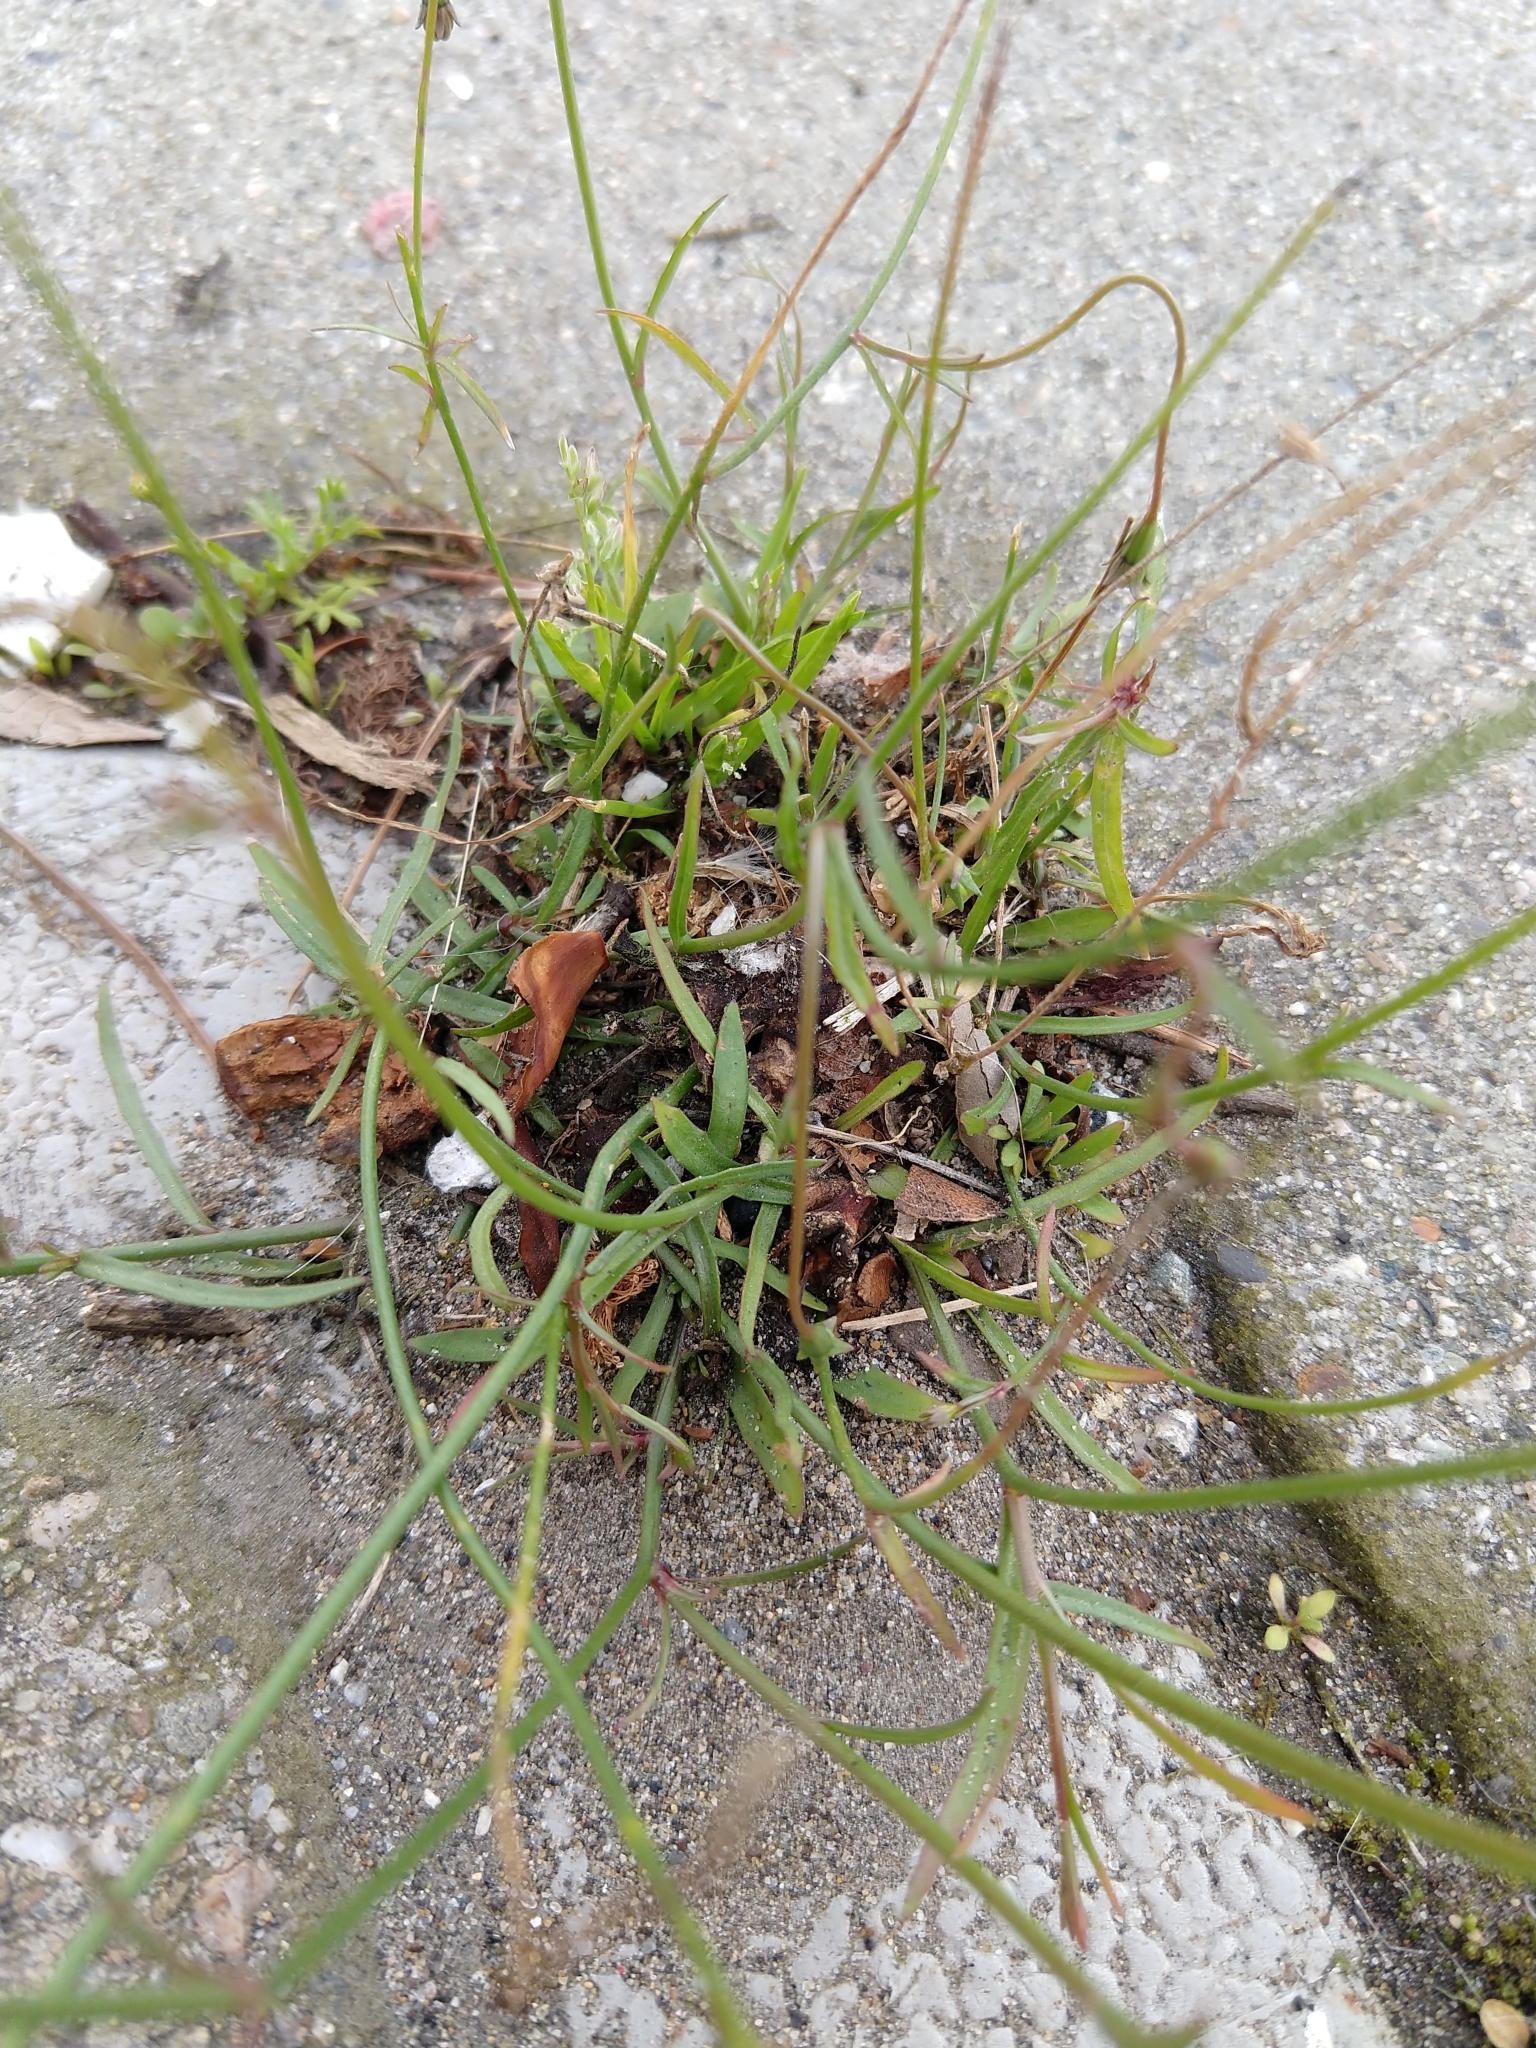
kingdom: Plantae
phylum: Tracheophyta
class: Magnoliopsida
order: Asterales
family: Campanulaceae
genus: Wahlenbergia
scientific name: Wahlenbergia marginata
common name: Southern rockbell
